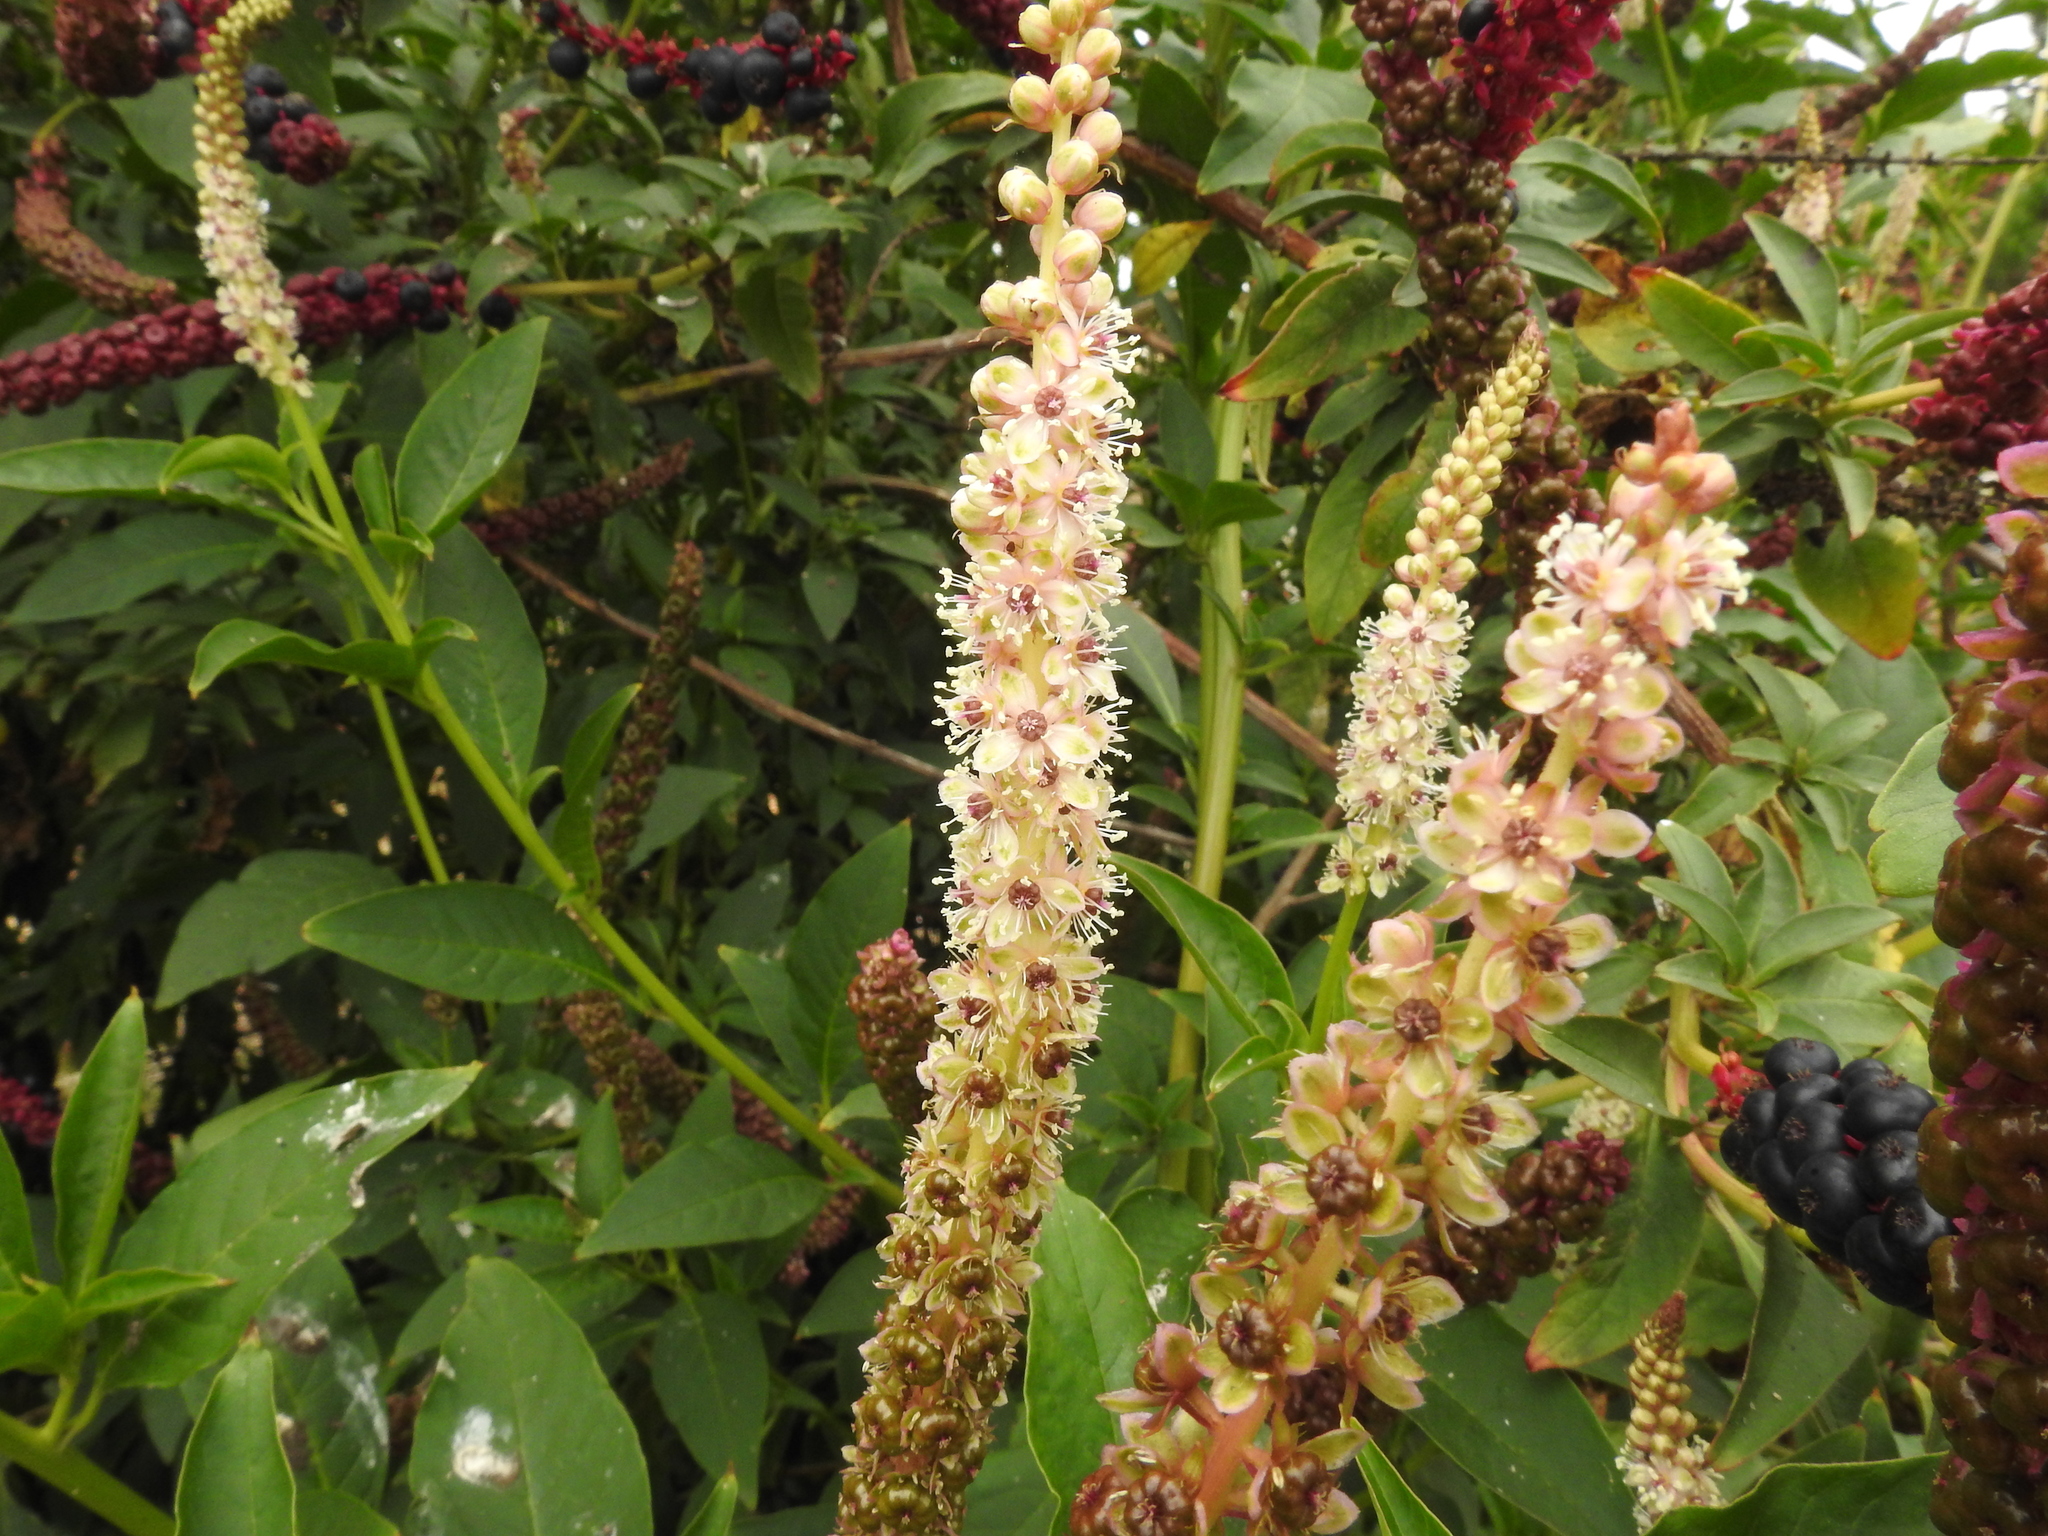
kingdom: Plantae
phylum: Tracheophyta
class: Magnoliopsida
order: Caryophyllales
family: Phytolaccaceae
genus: Phytolacca
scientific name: Phytolacca heterotepala
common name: Mexican pokeweed
